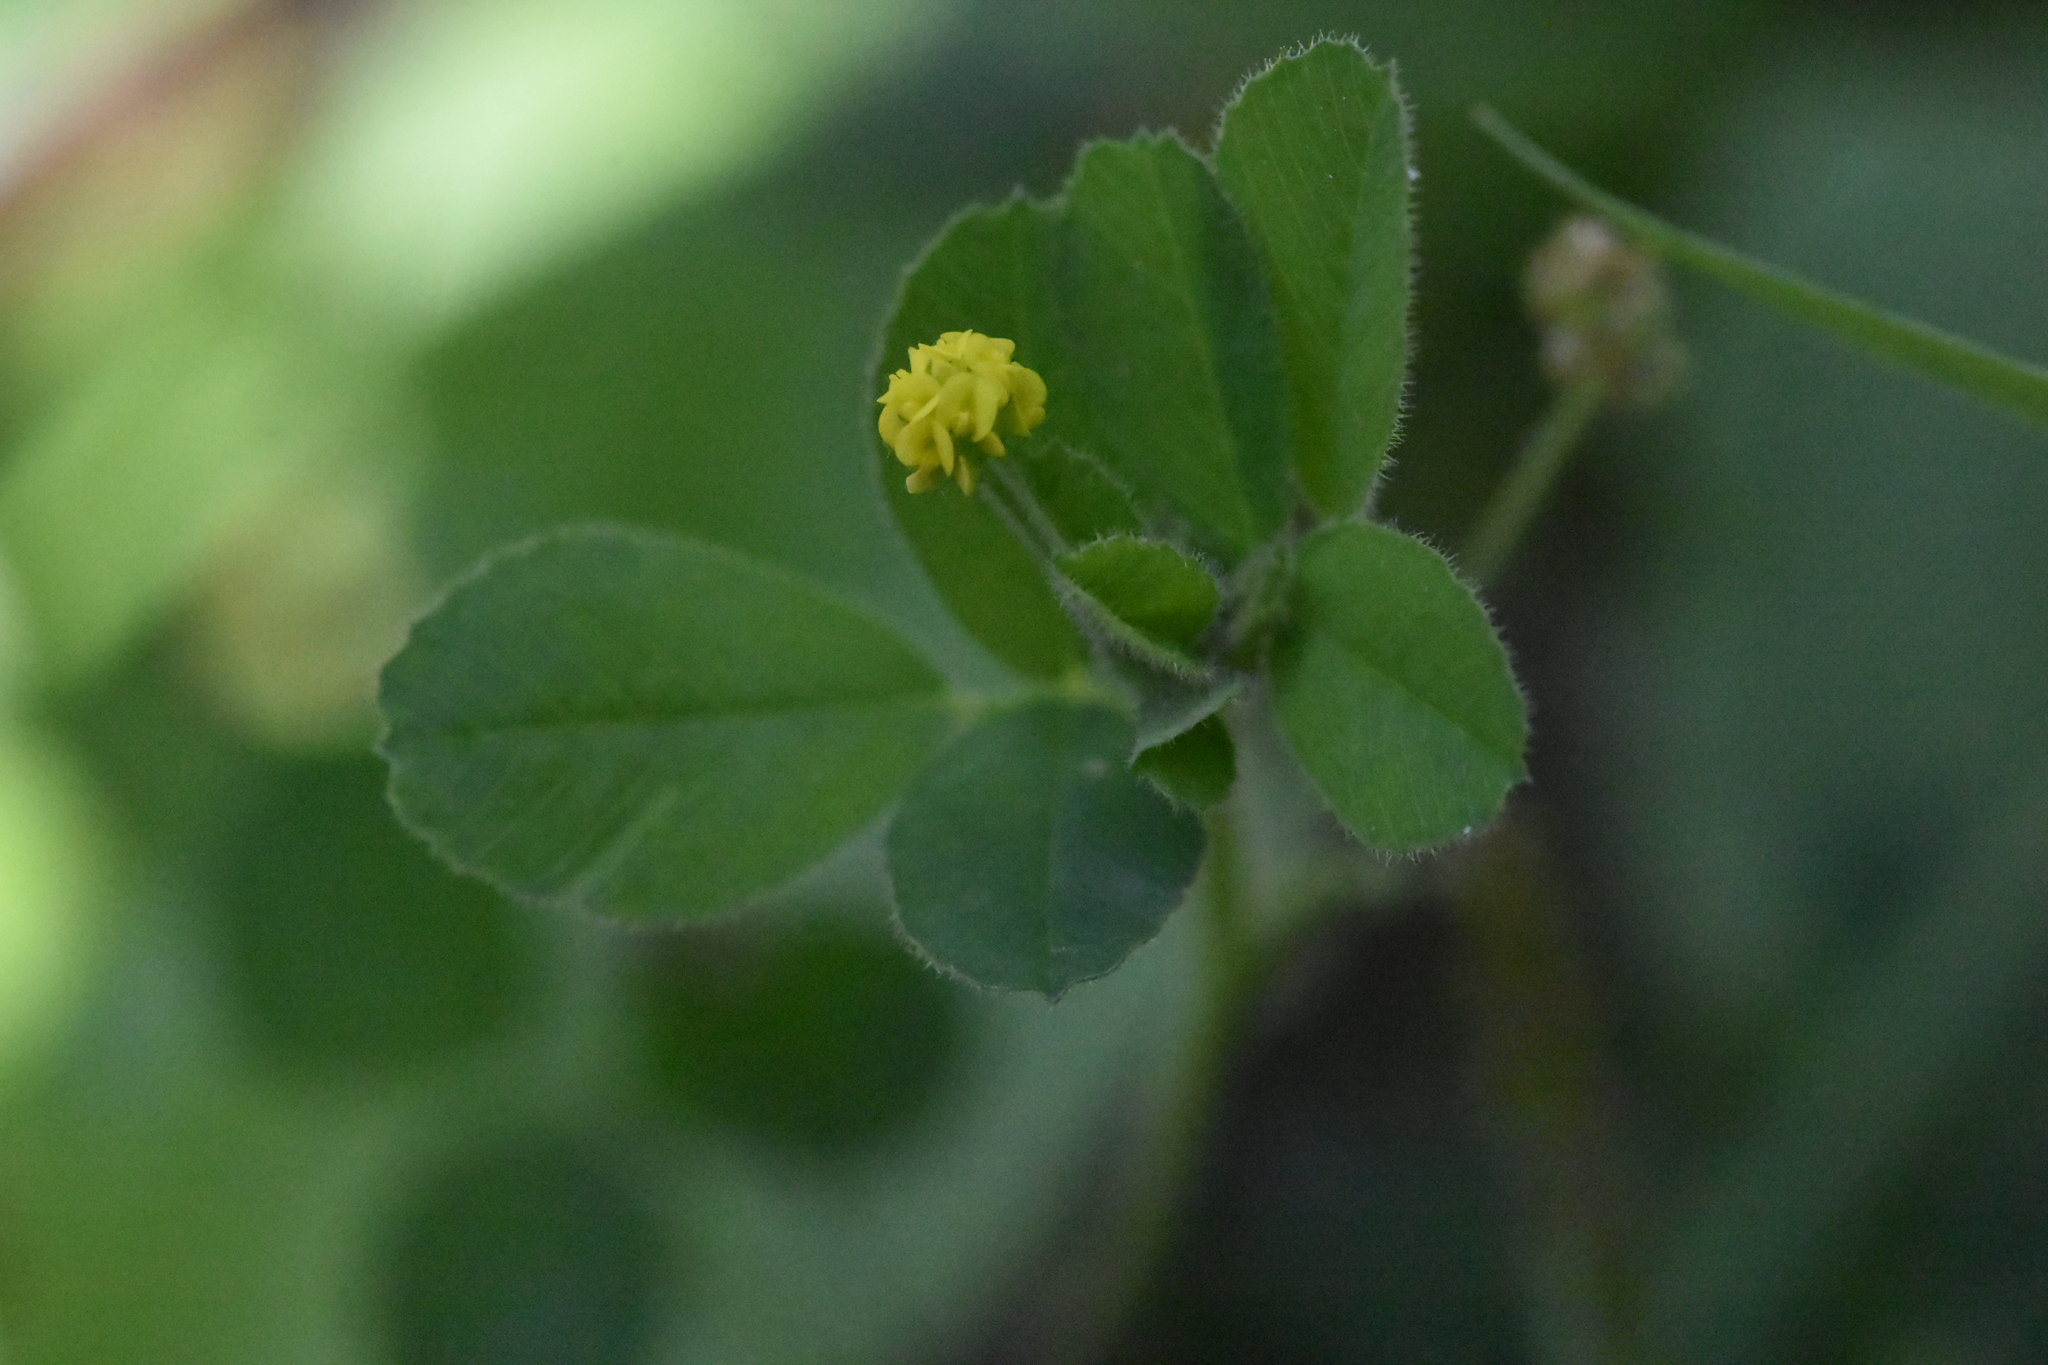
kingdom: Plantae
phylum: Tracheophyta
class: Magnoliopsida
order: Fabales
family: Fabaceae
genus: Medicago
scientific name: Medicago lupulina
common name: Black medick
